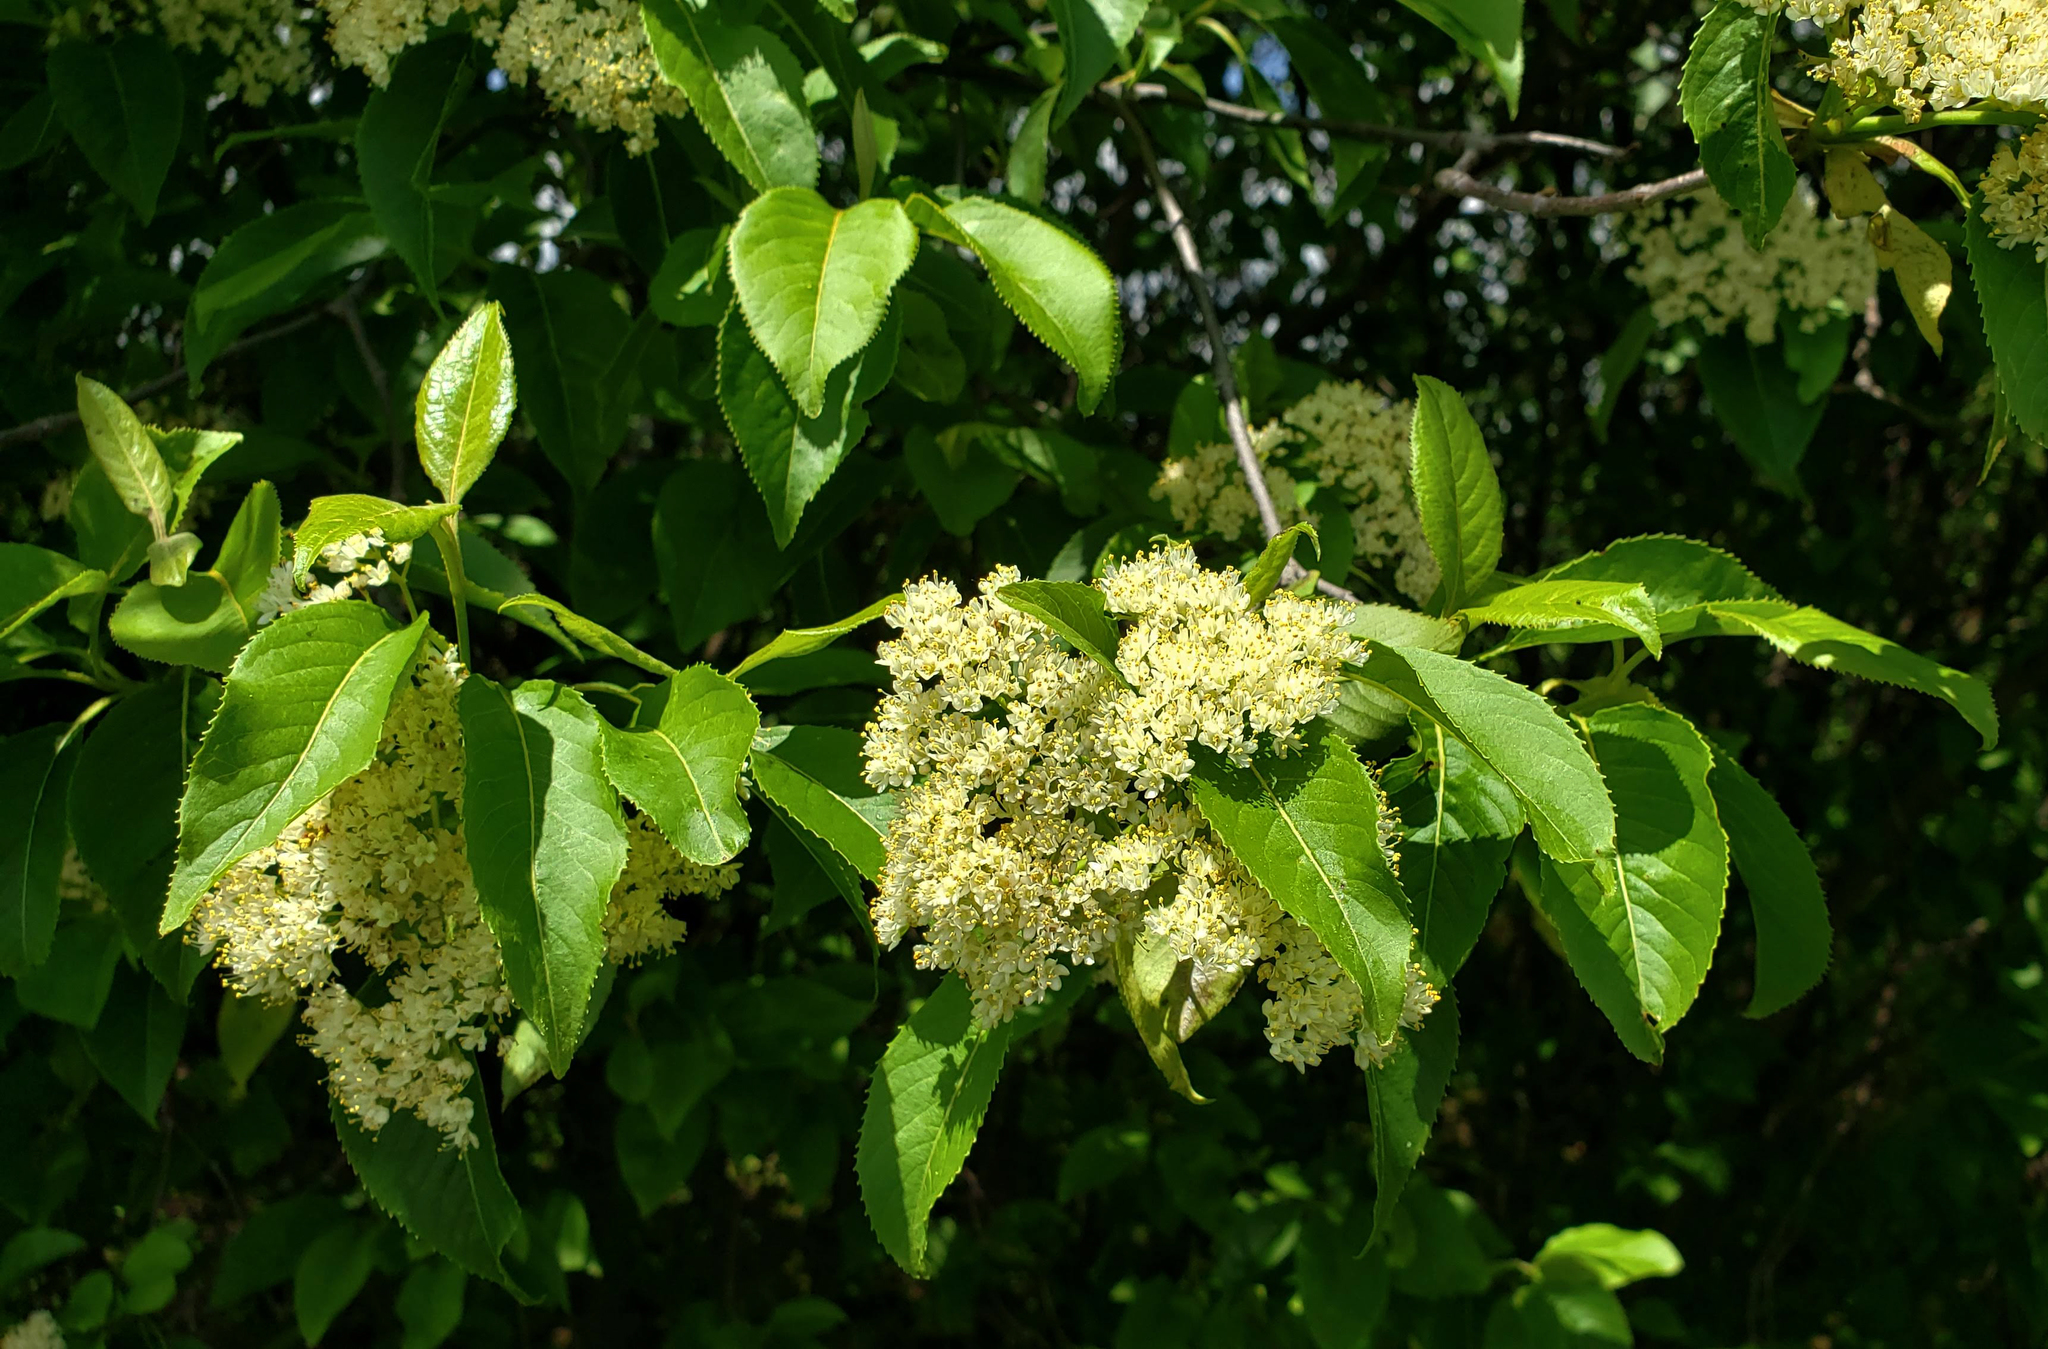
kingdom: Plantae
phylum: Tracheophyta
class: Magnoliopsida
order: Dipsacales
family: Viburnaceae
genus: Viburnum
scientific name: Viburnum lentago
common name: Black haw
